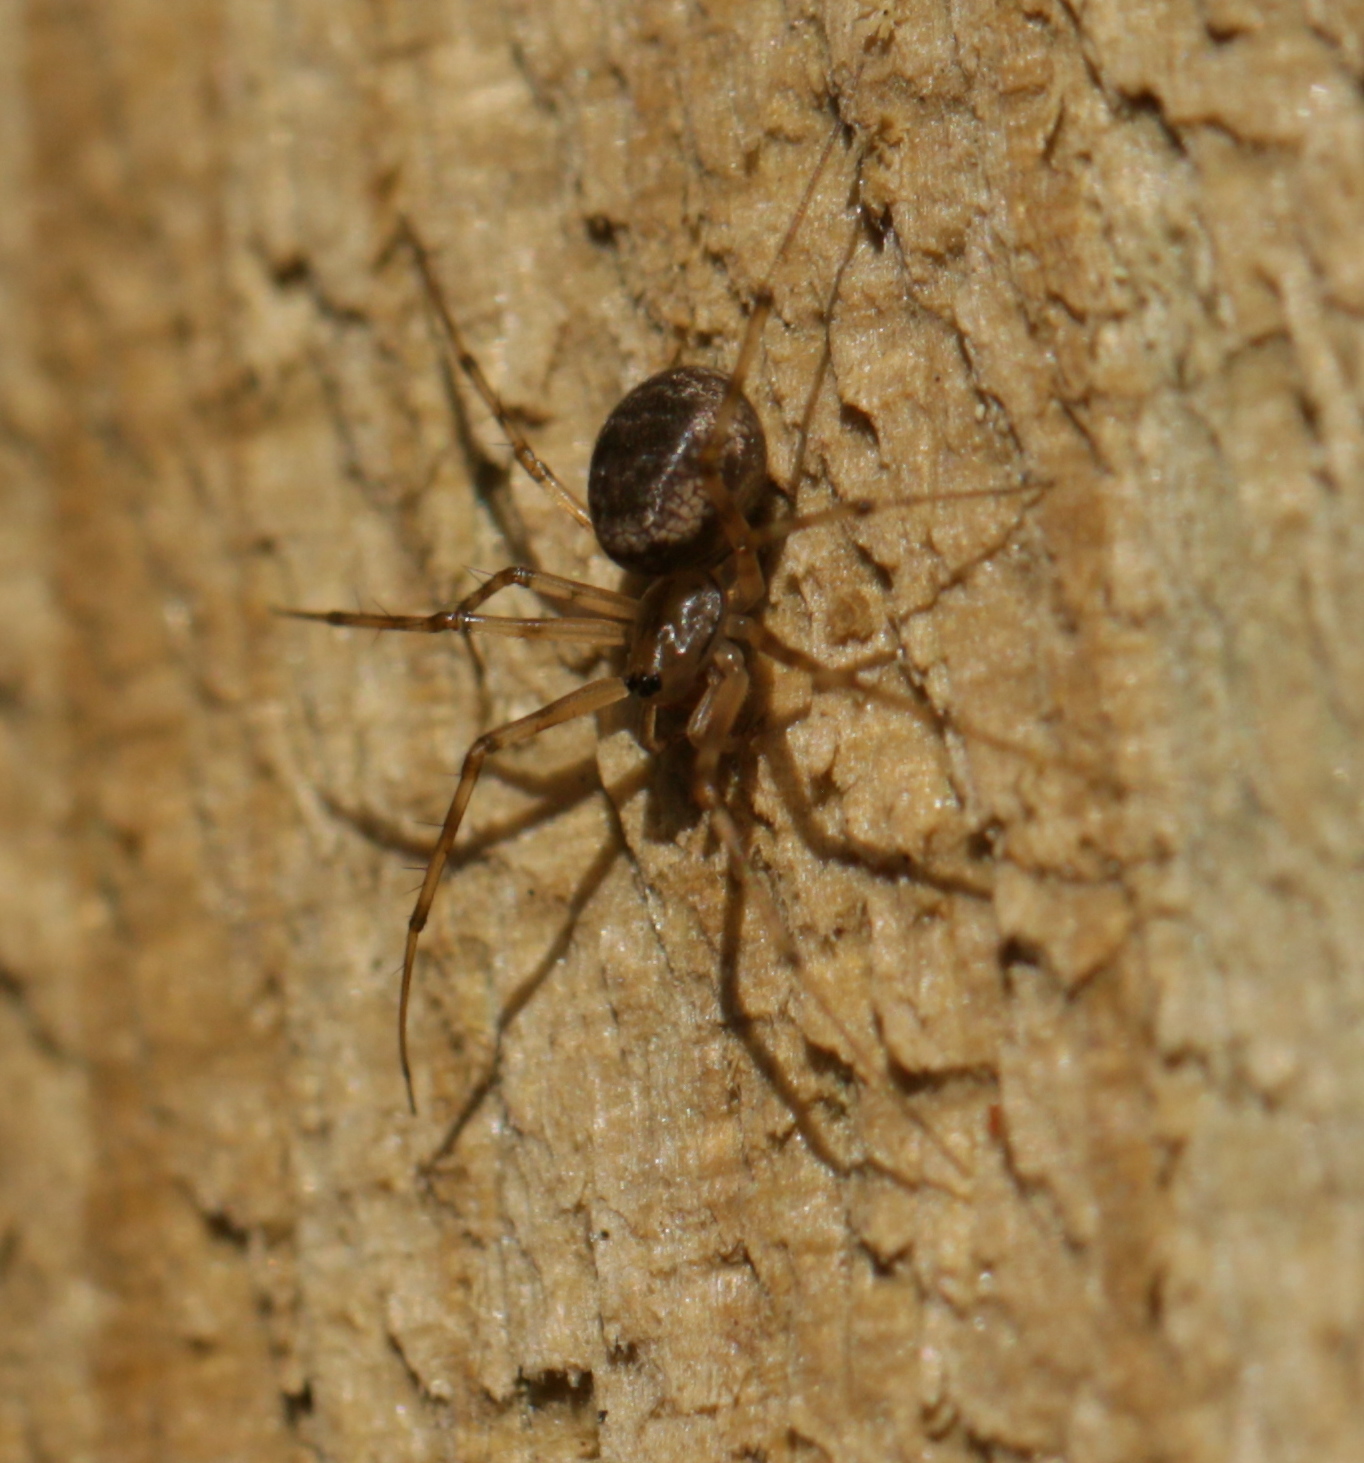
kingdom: Animalia
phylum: Arthropoda
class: Arachnida
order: Araneae
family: Linyphiidae
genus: Drapetisca
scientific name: Drapetisca socialis
